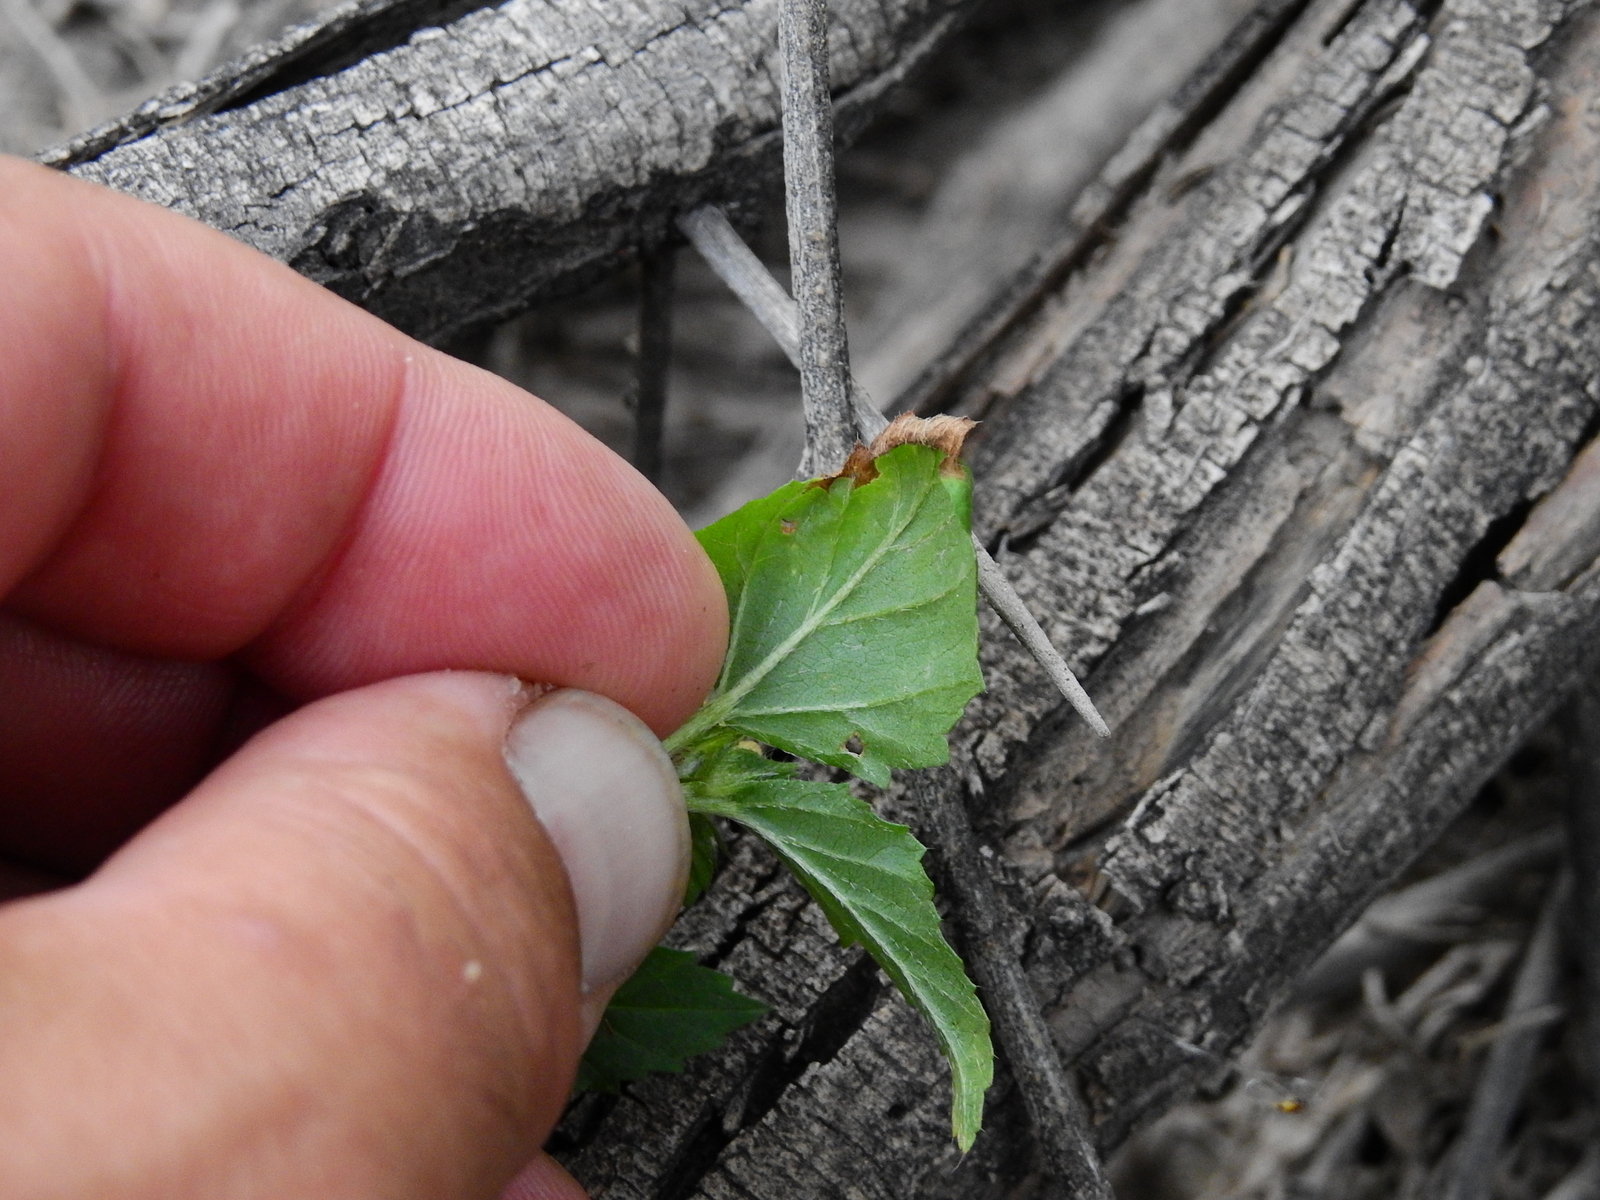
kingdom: Plantae
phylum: Tracheophyta
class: Magnoliopsida
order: Malvales
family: Malvaceae
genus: Malvastrum
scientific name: Malvastrum coromandelianum
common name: Threelobe false mallow
